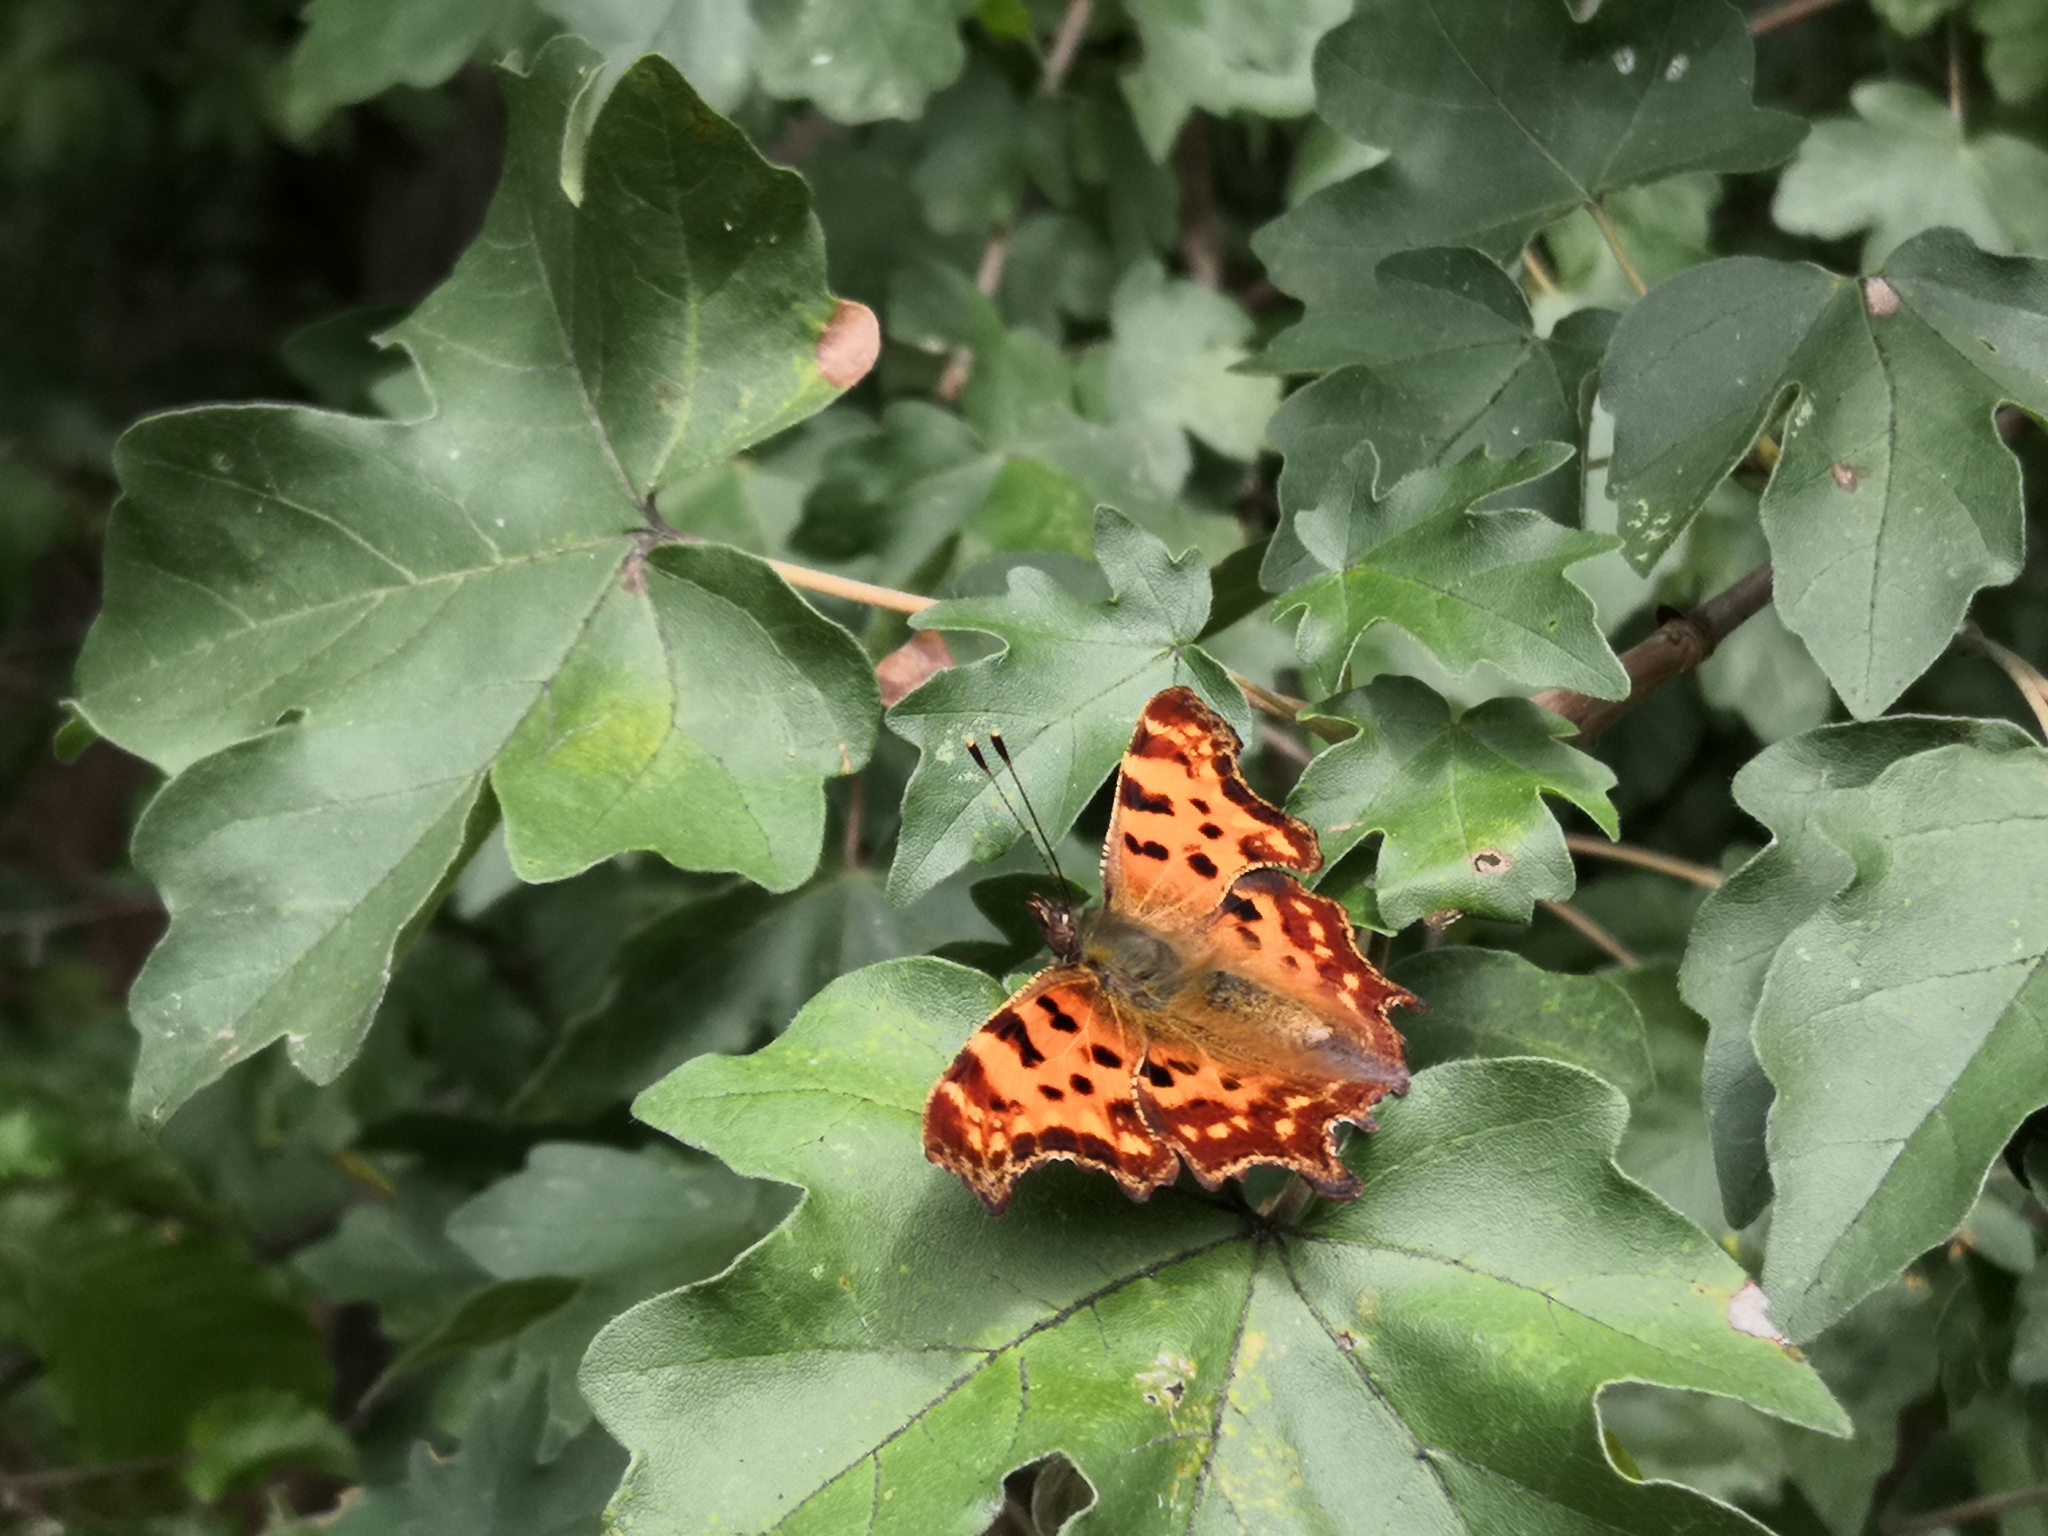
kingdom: Animalia
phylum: Arthropoda
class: Insecta
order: Lepidoptera
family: Nymphalidae
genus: Polygonia
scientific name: Polygonia c-album
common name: Comma
